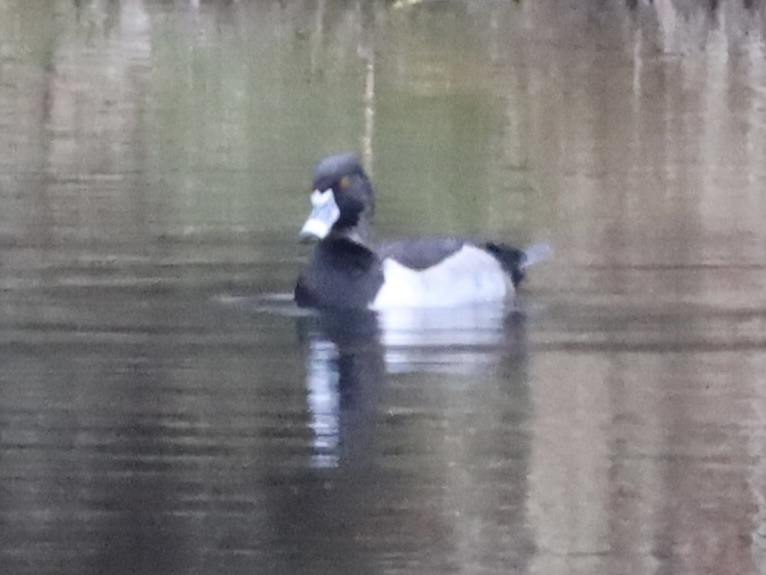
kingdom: Animalia
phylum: Chordata
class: Aves
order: Anseriformes
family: Anatidae
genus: Aythya
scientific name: Aythya collaris
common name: Ring-necked duck
